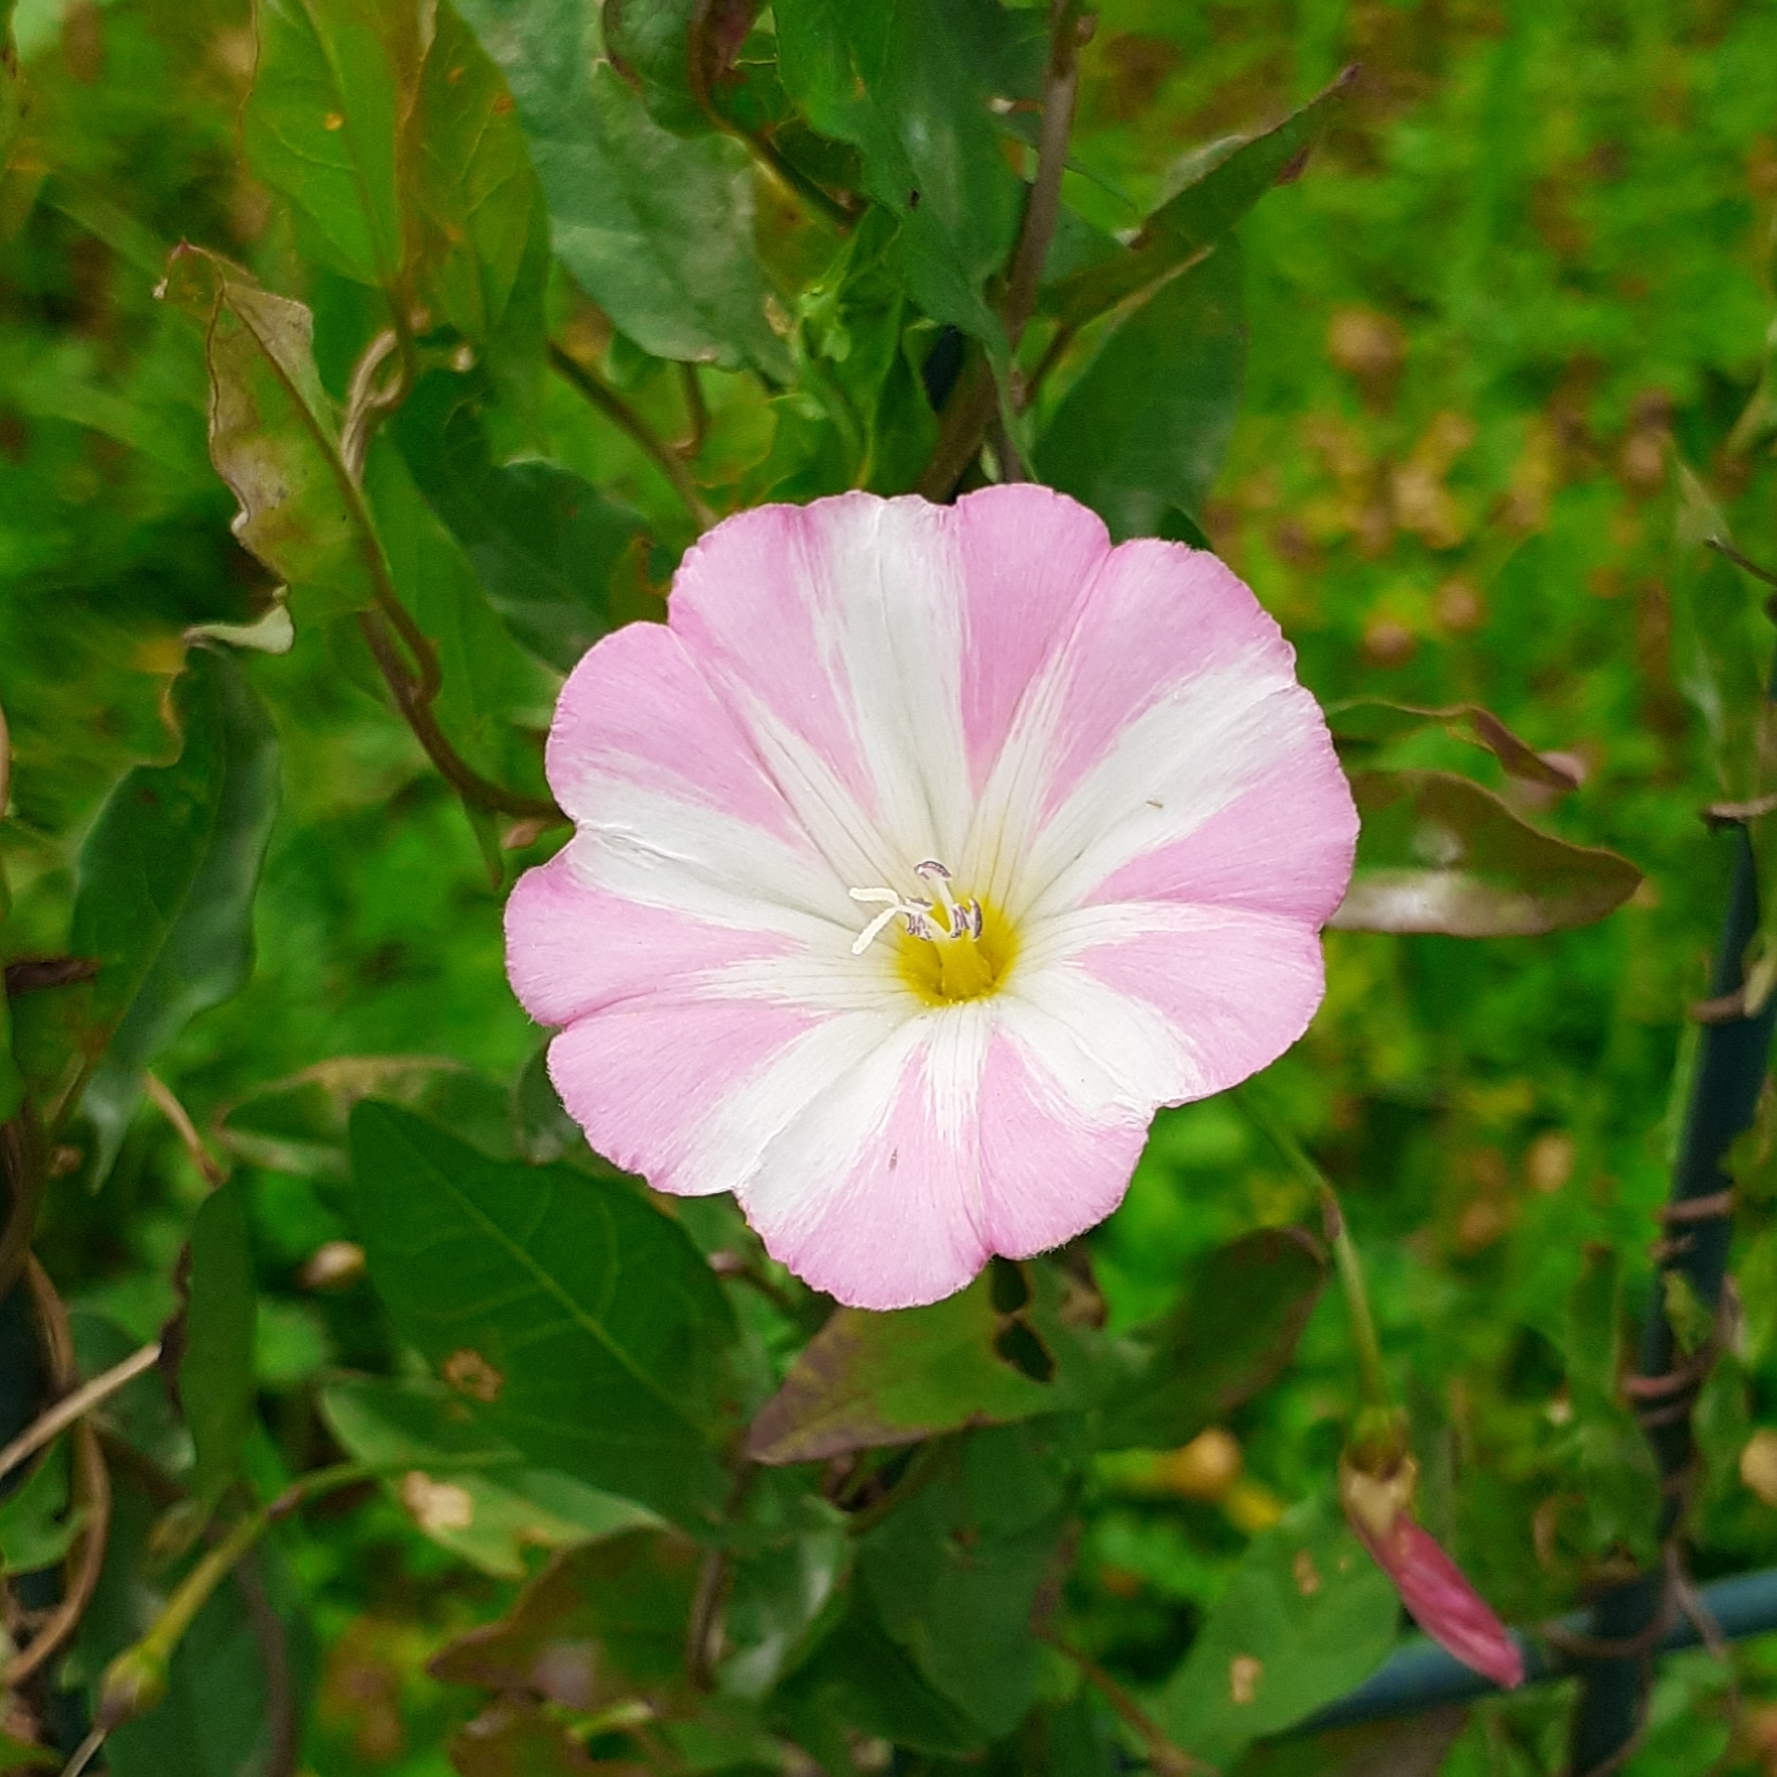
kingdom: Plantae
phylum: Tracheophyta
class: Magnoliopsida
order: Solanales
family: Convolvulaceae
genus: Convolvulus
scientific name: Convolvulus arvensis
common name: Field bindweed
